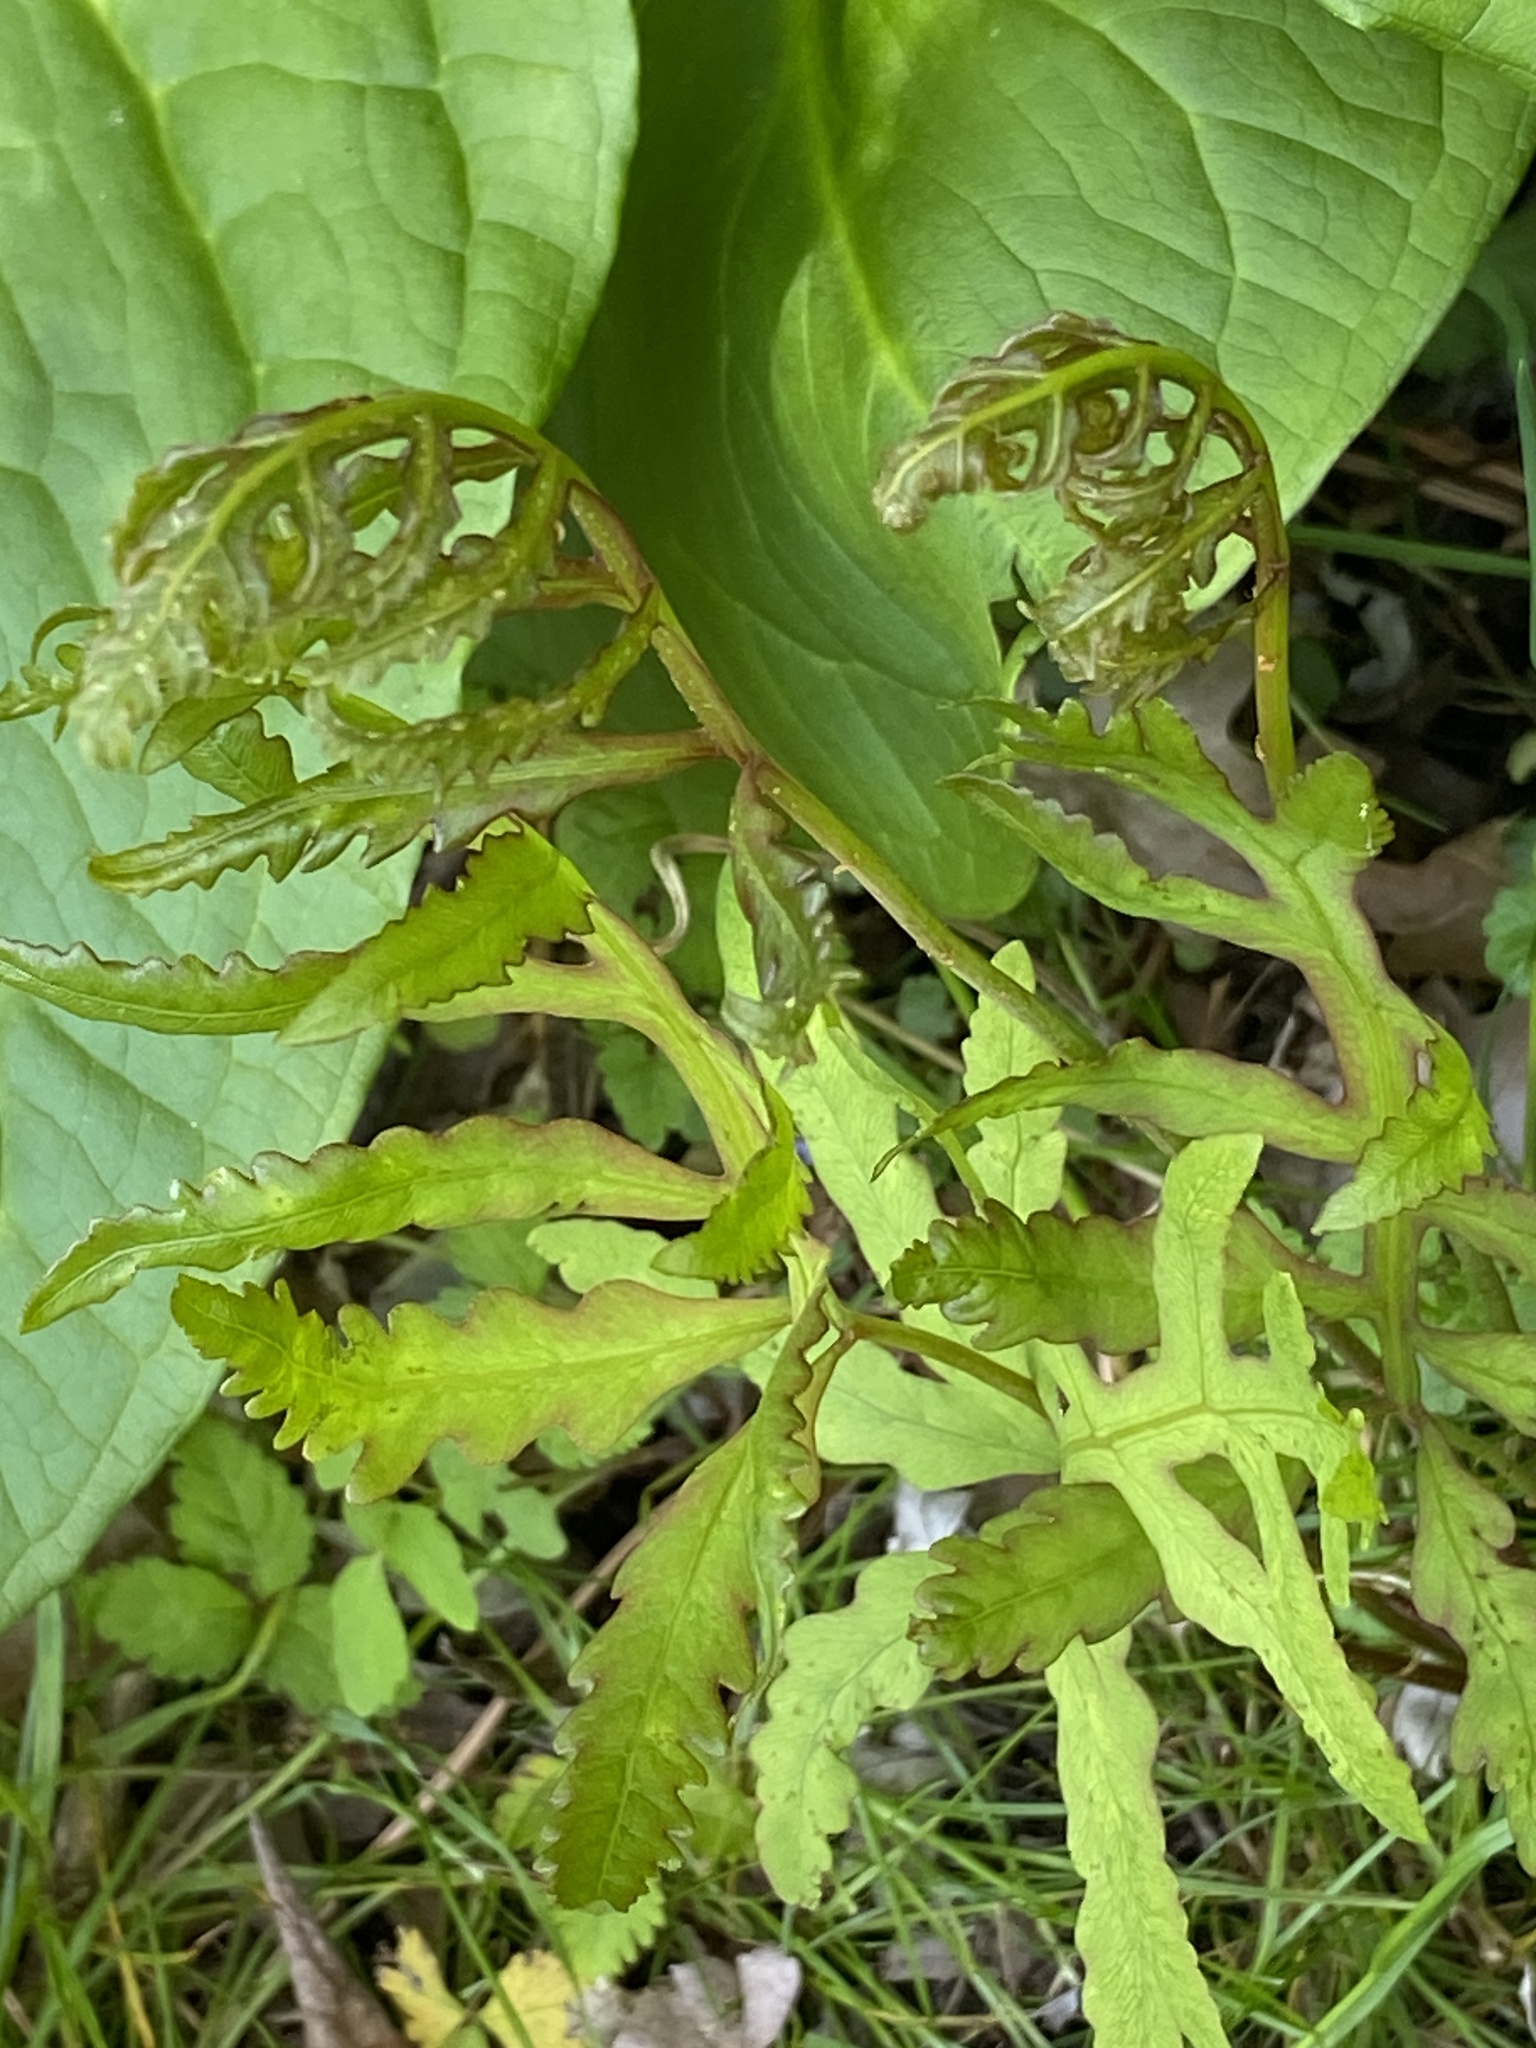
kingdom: Plantae
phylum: Tracheophyta
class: Polypodiopsida
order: Polypodiales
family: Onocleaceae
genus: Onoclea
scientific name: Onoclea sensibilis
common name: Sensitive fern
